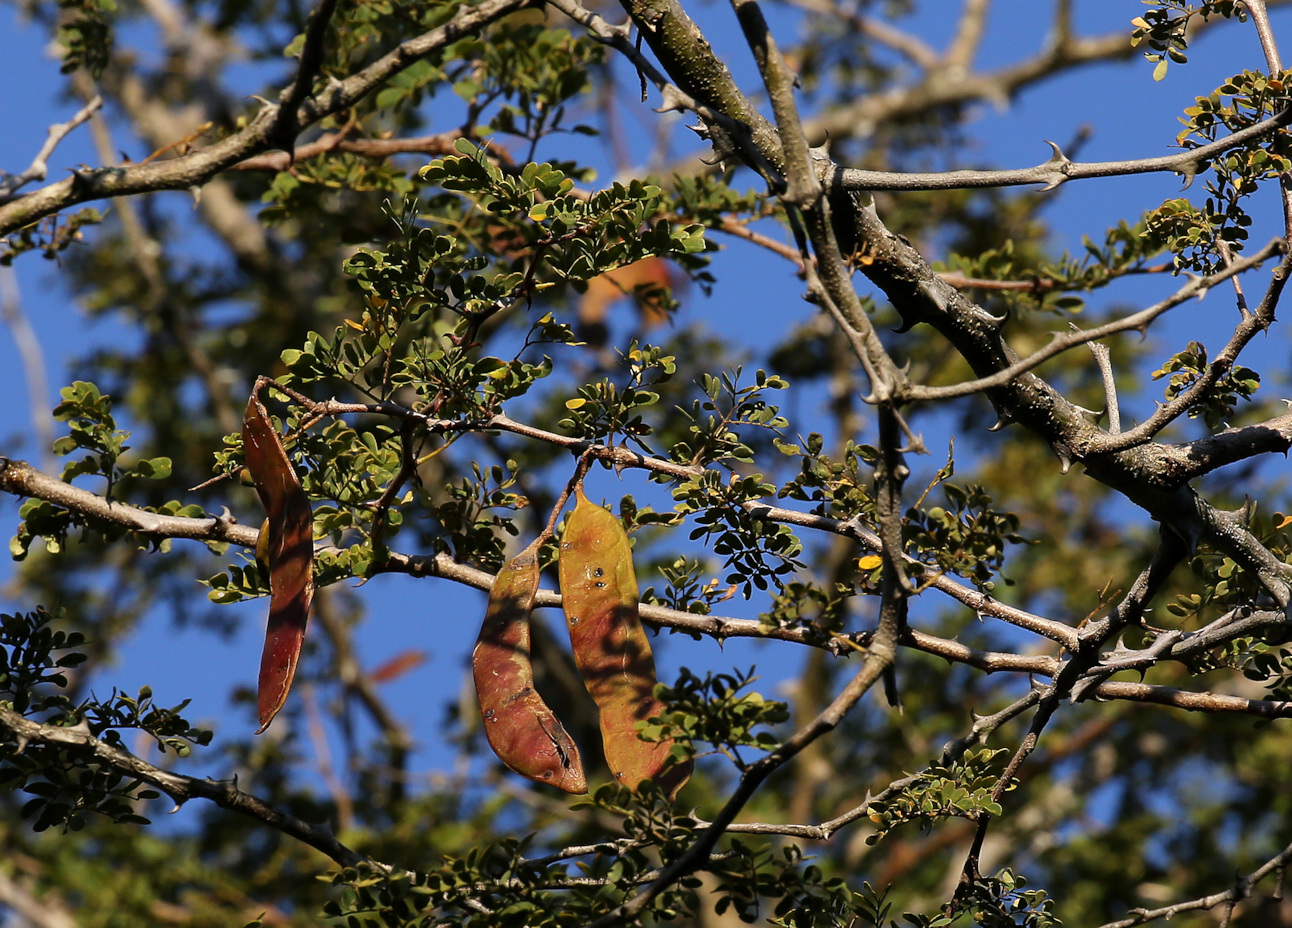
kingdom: Plantae
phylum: Tracheophyta
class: Magnoliopsida
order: Fabales
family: Fabaceae
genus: Senegalia
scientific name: Senegalia burkei
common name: Black monkey thorn
